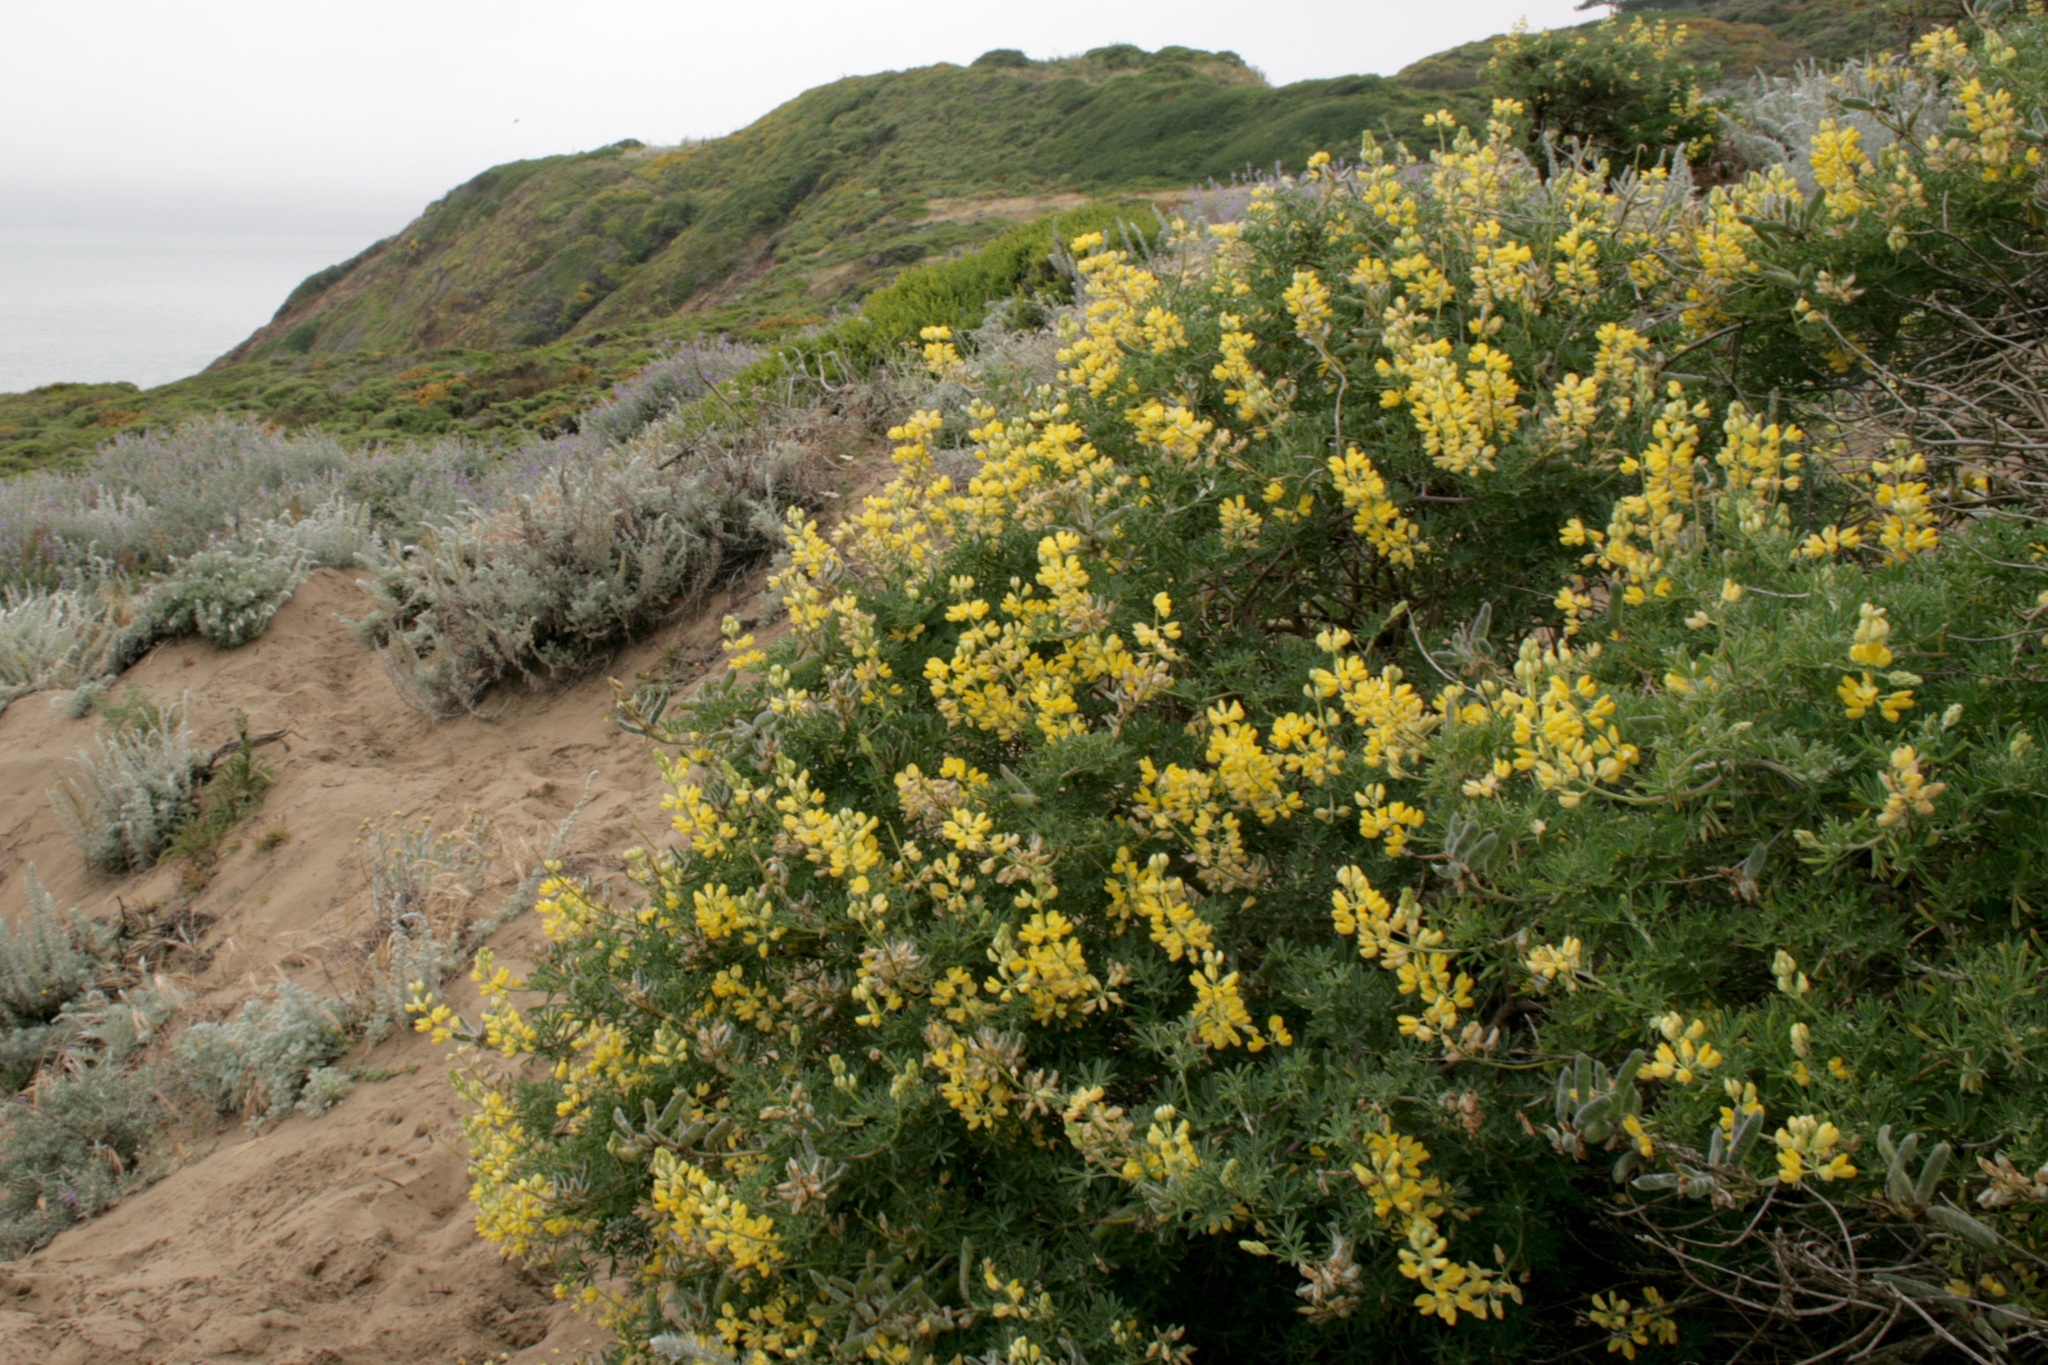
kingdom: Plantae
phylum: Tracheophyta
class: Magnoliopsida
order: Fabales
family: Fabaceae
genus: Lupinus
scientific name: Lupinus arboreus
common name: Yellow bush lupine
